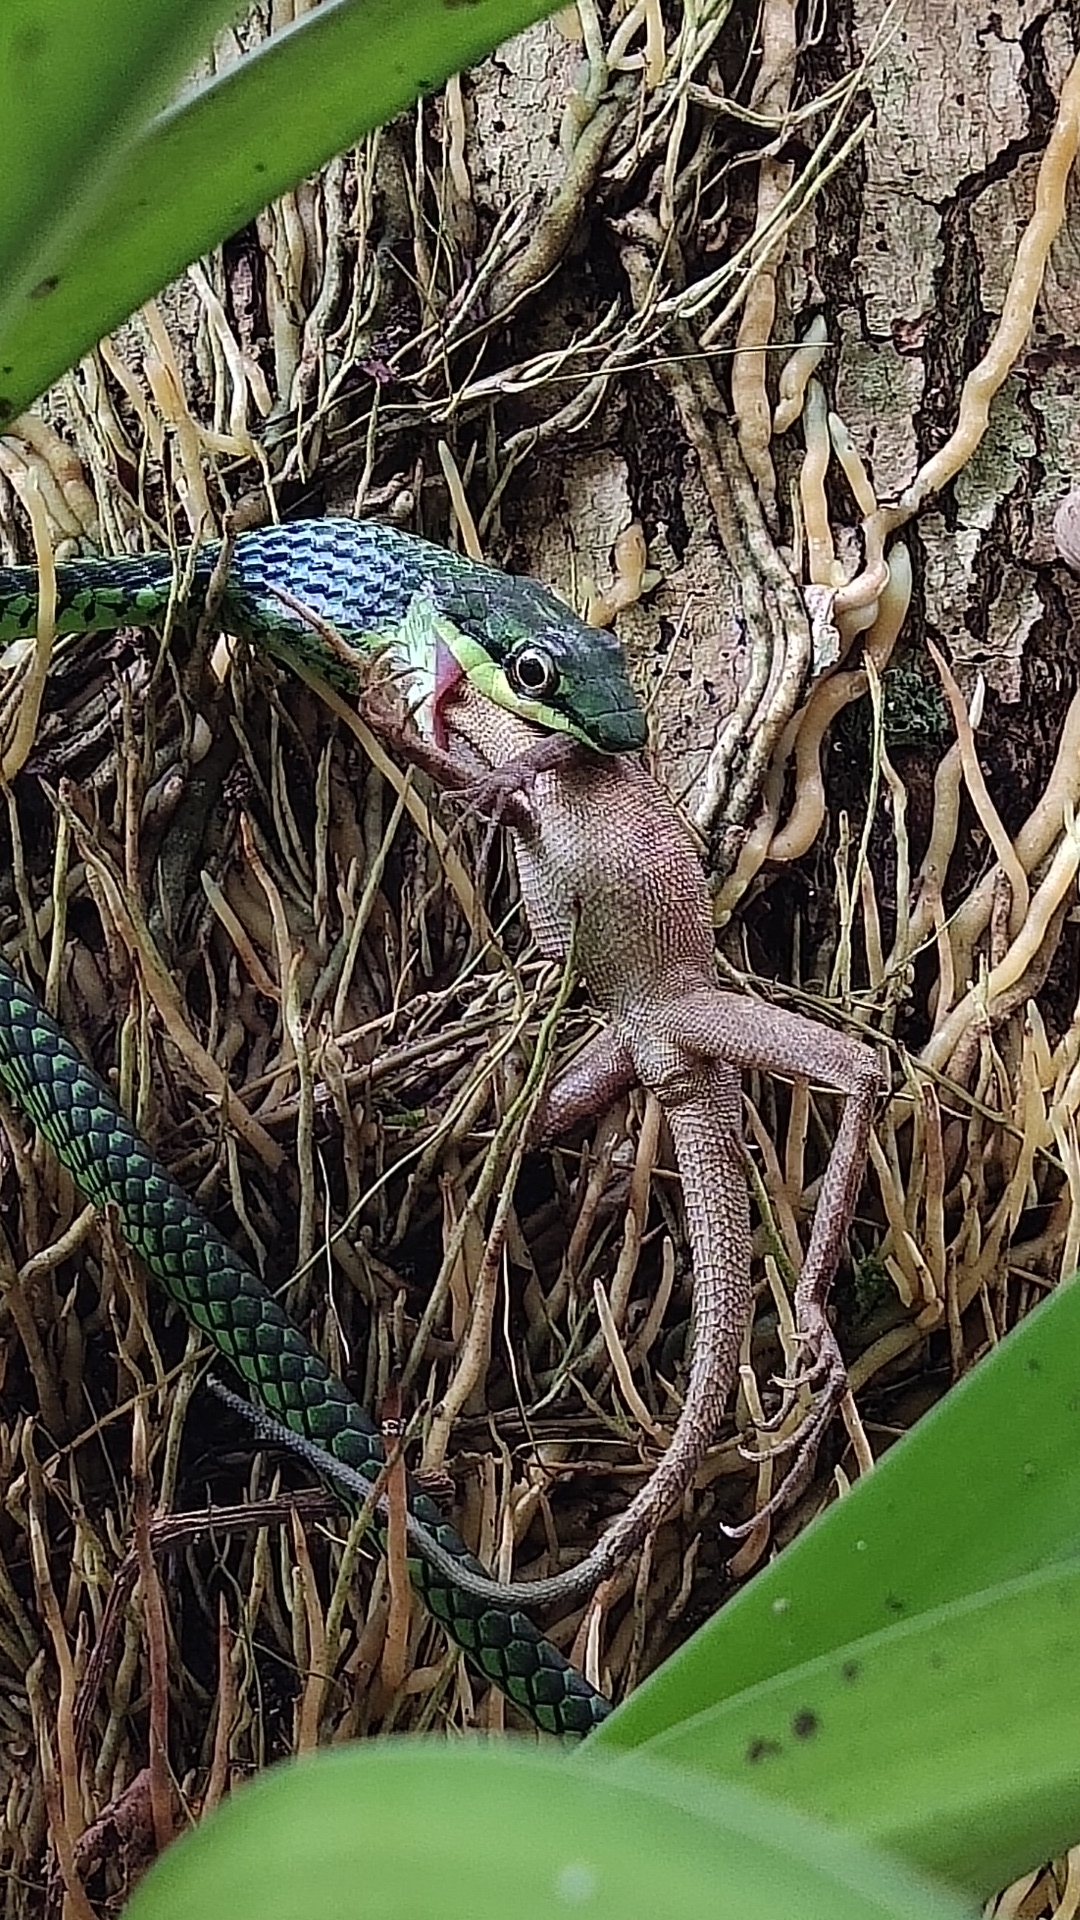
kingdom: Animalia
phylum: Chordata
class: Squamata
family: Colubridae
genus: Dendrelaphis
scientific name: Dendrelaphis andamanensis
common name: Andaman bronze-back
